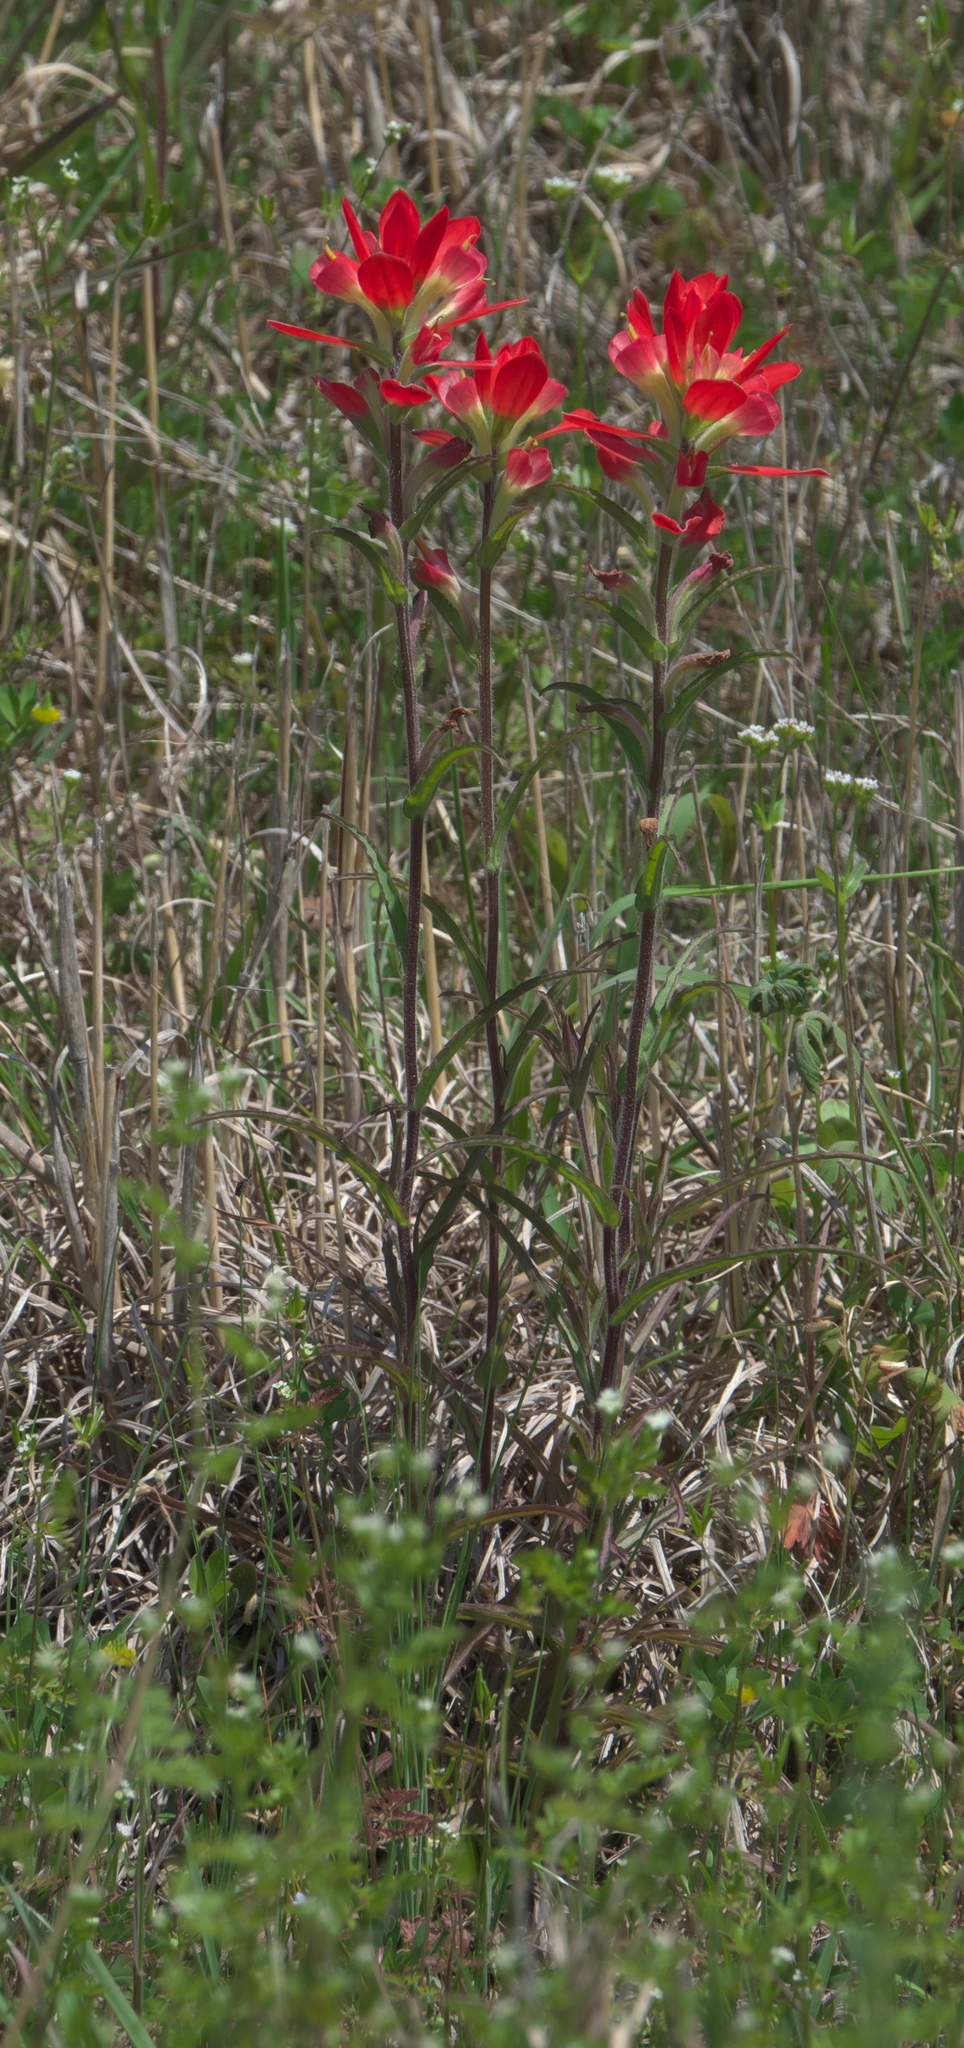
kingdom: Plantae
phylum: Tracheophyta
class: Magnoliopsida
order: Lamiales
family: Orobanchaceae
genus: Castilleja
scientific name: Castilleja indivisa
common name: Texas paintbrush
